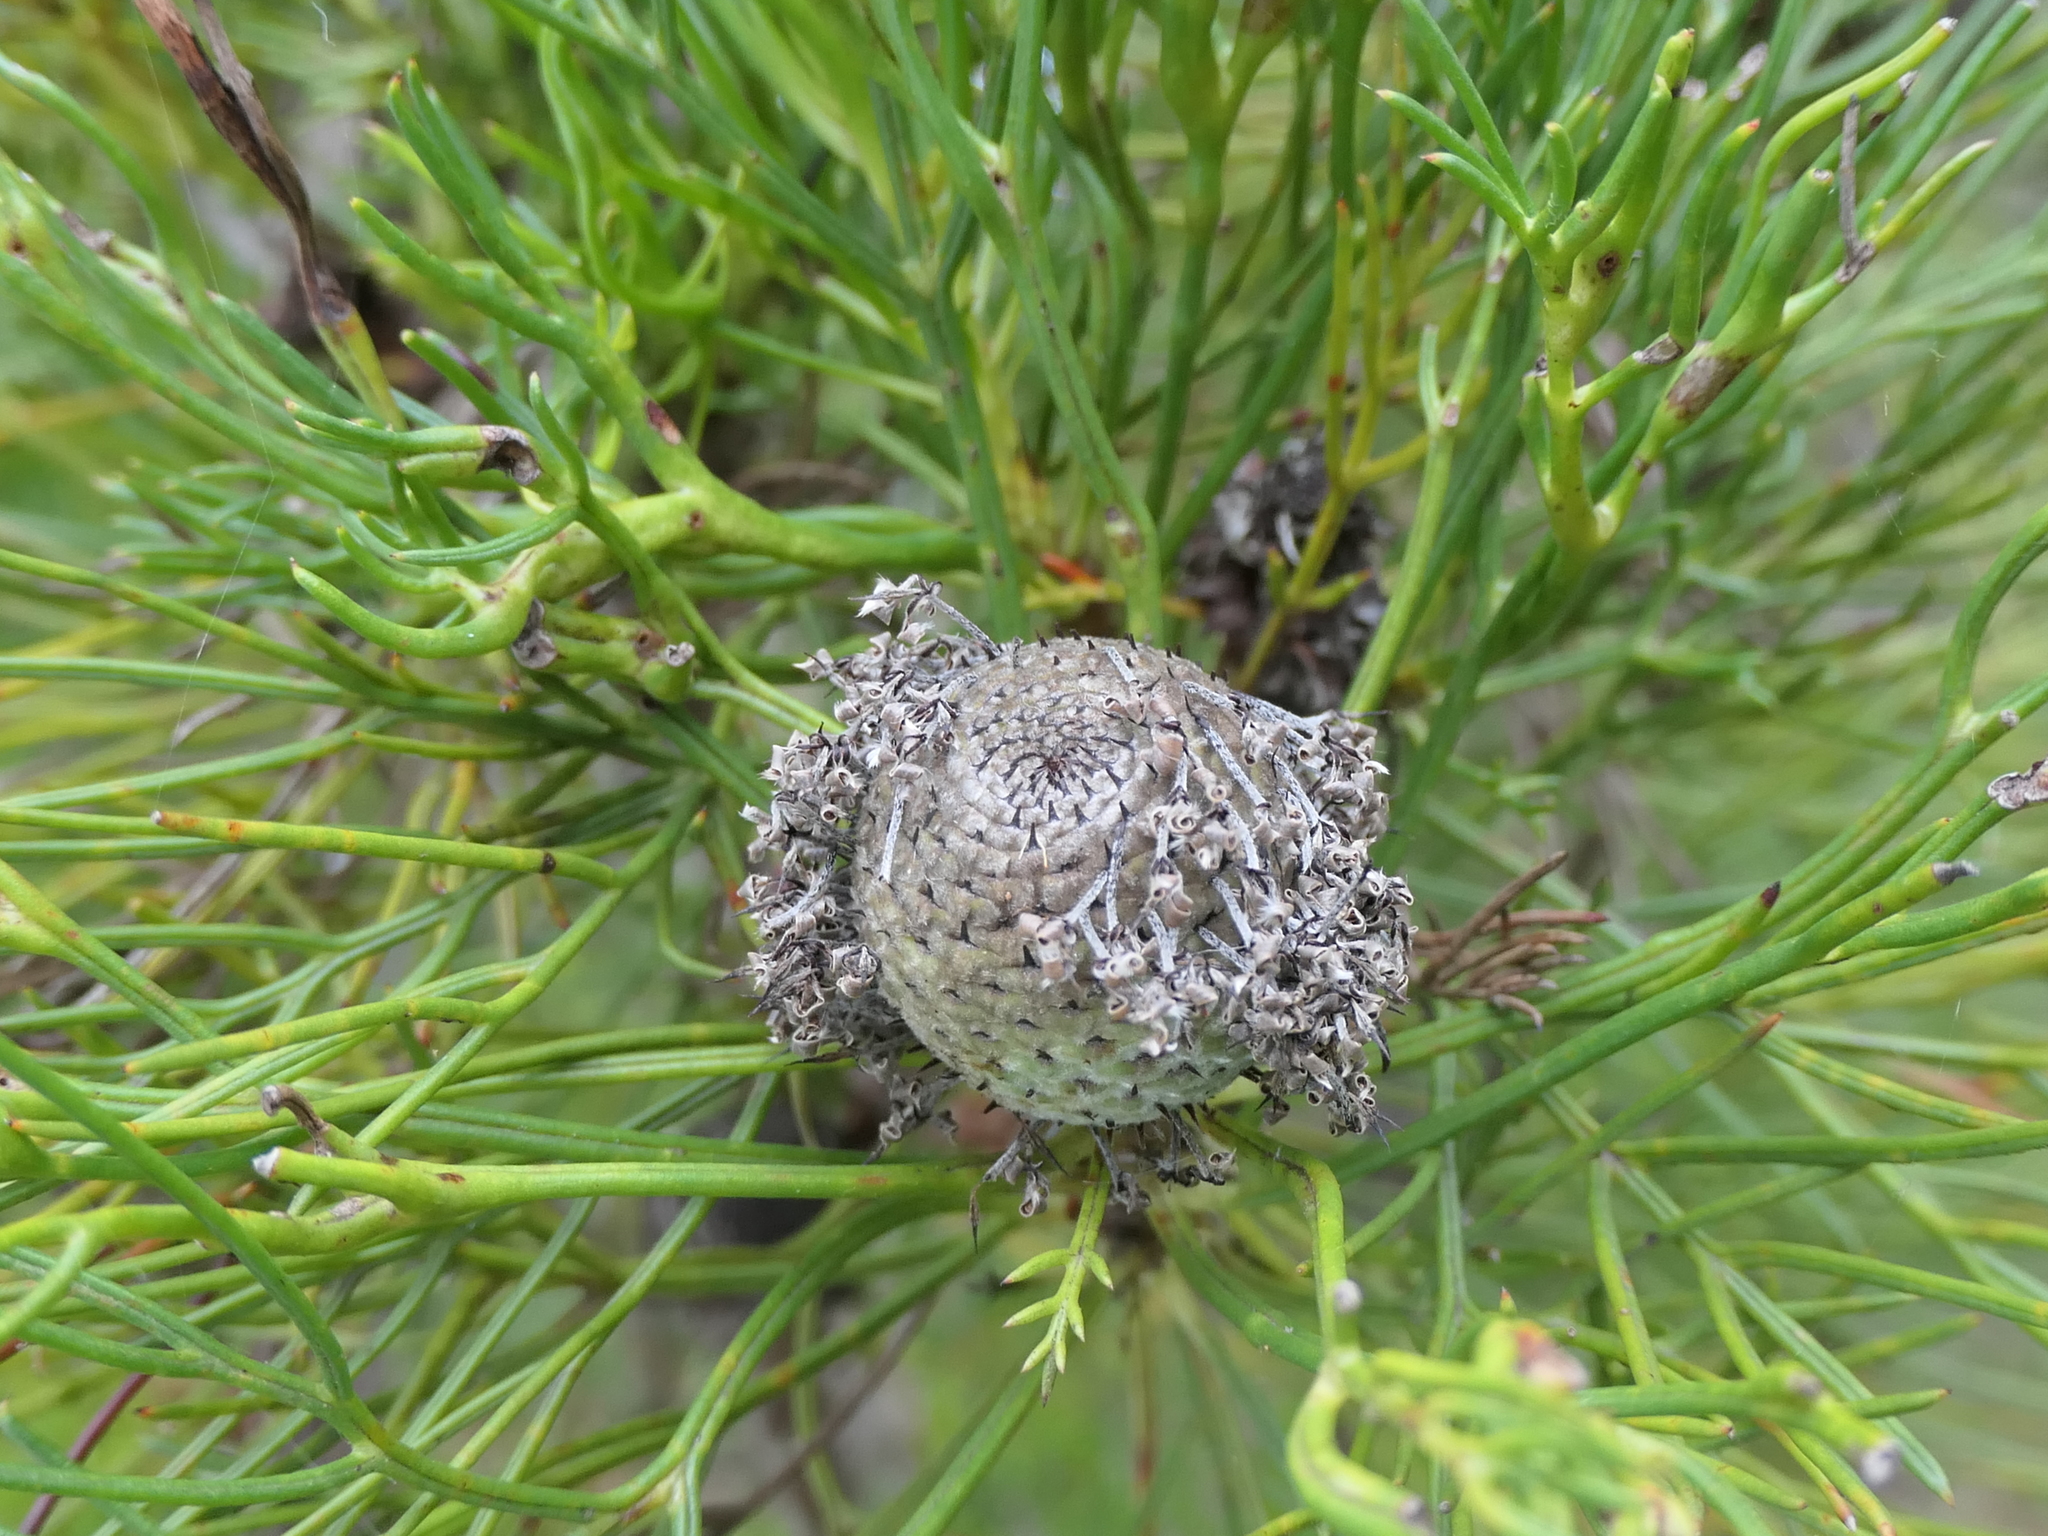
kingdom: Plantae
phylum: Tracheophyta
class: Magnoliopsida
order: Proteales
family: Proteaceae
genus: Isopogon
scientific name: Isopogon anethifolius
